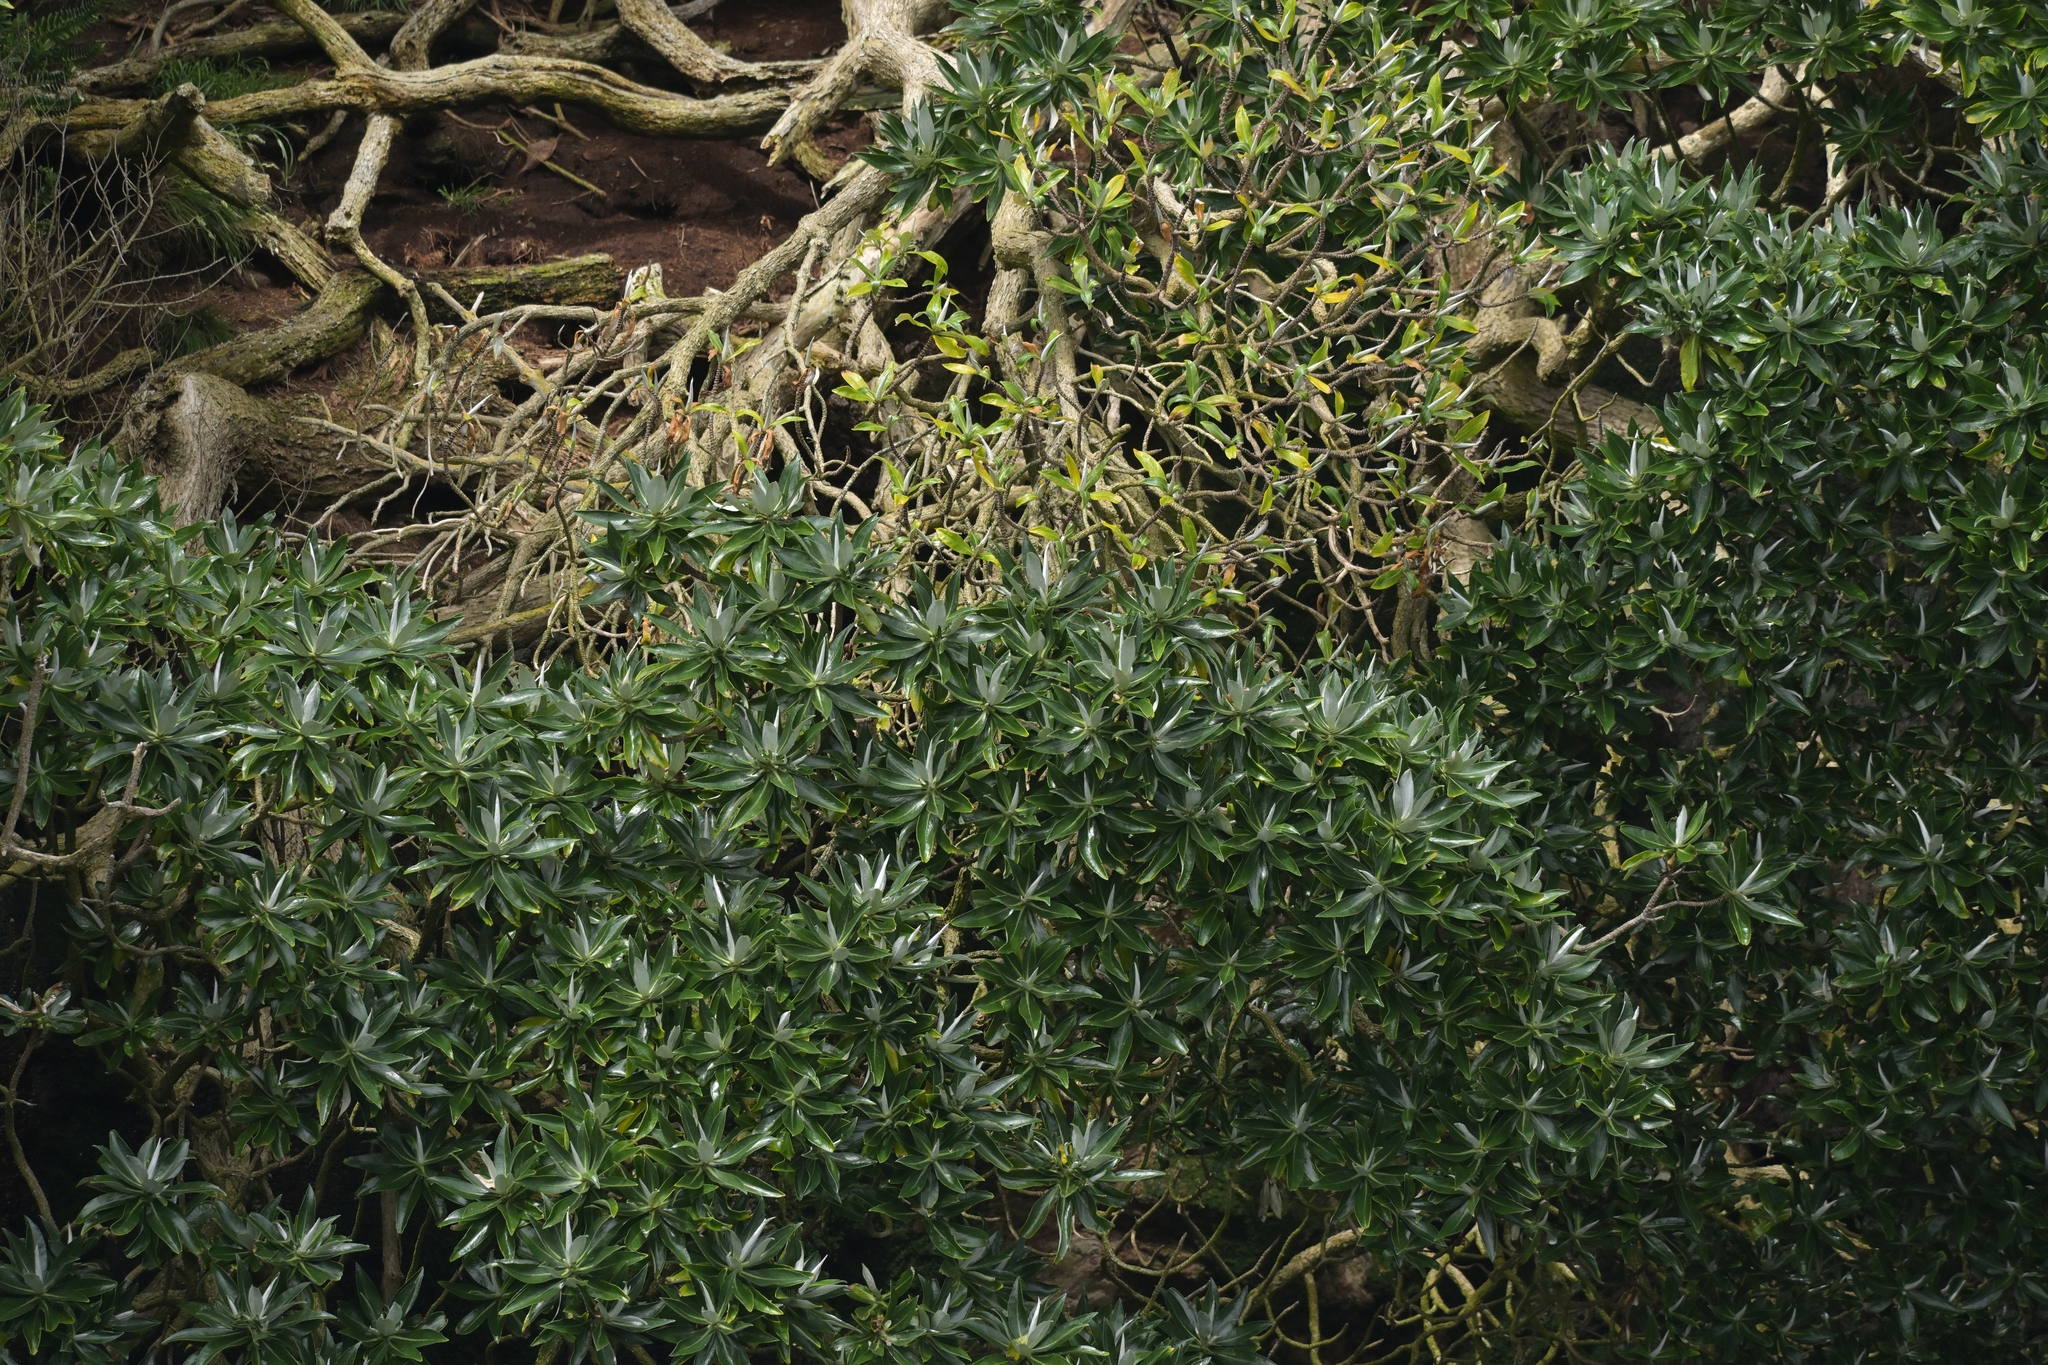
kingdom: Plantae
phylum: Tracheophyta
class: Magnoliopsida
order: Asterales
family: Asteraceae
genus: Brachyglottis
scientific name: Brachyglottis stewartiae
